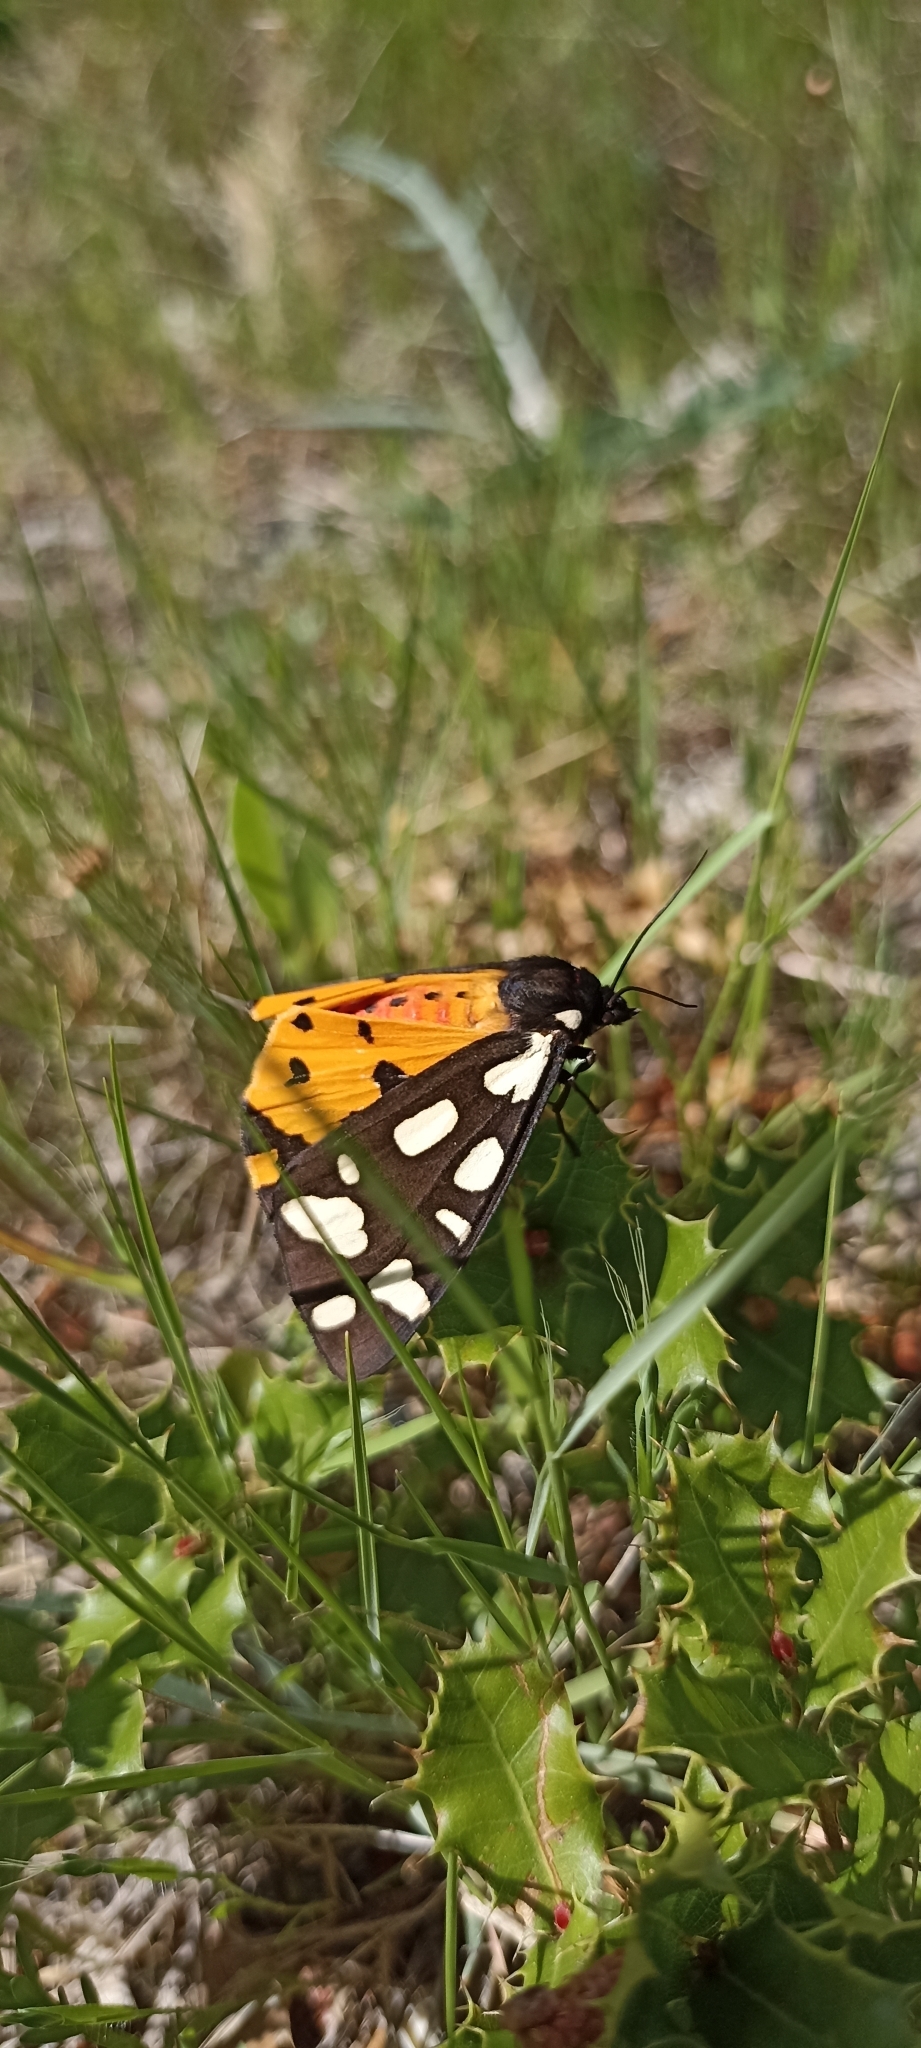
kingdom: Animalia
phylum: Arthropoda
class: Insecta
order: Lepidoptera
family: Erebidae
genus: Epicallia
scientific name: Epicallia villica
